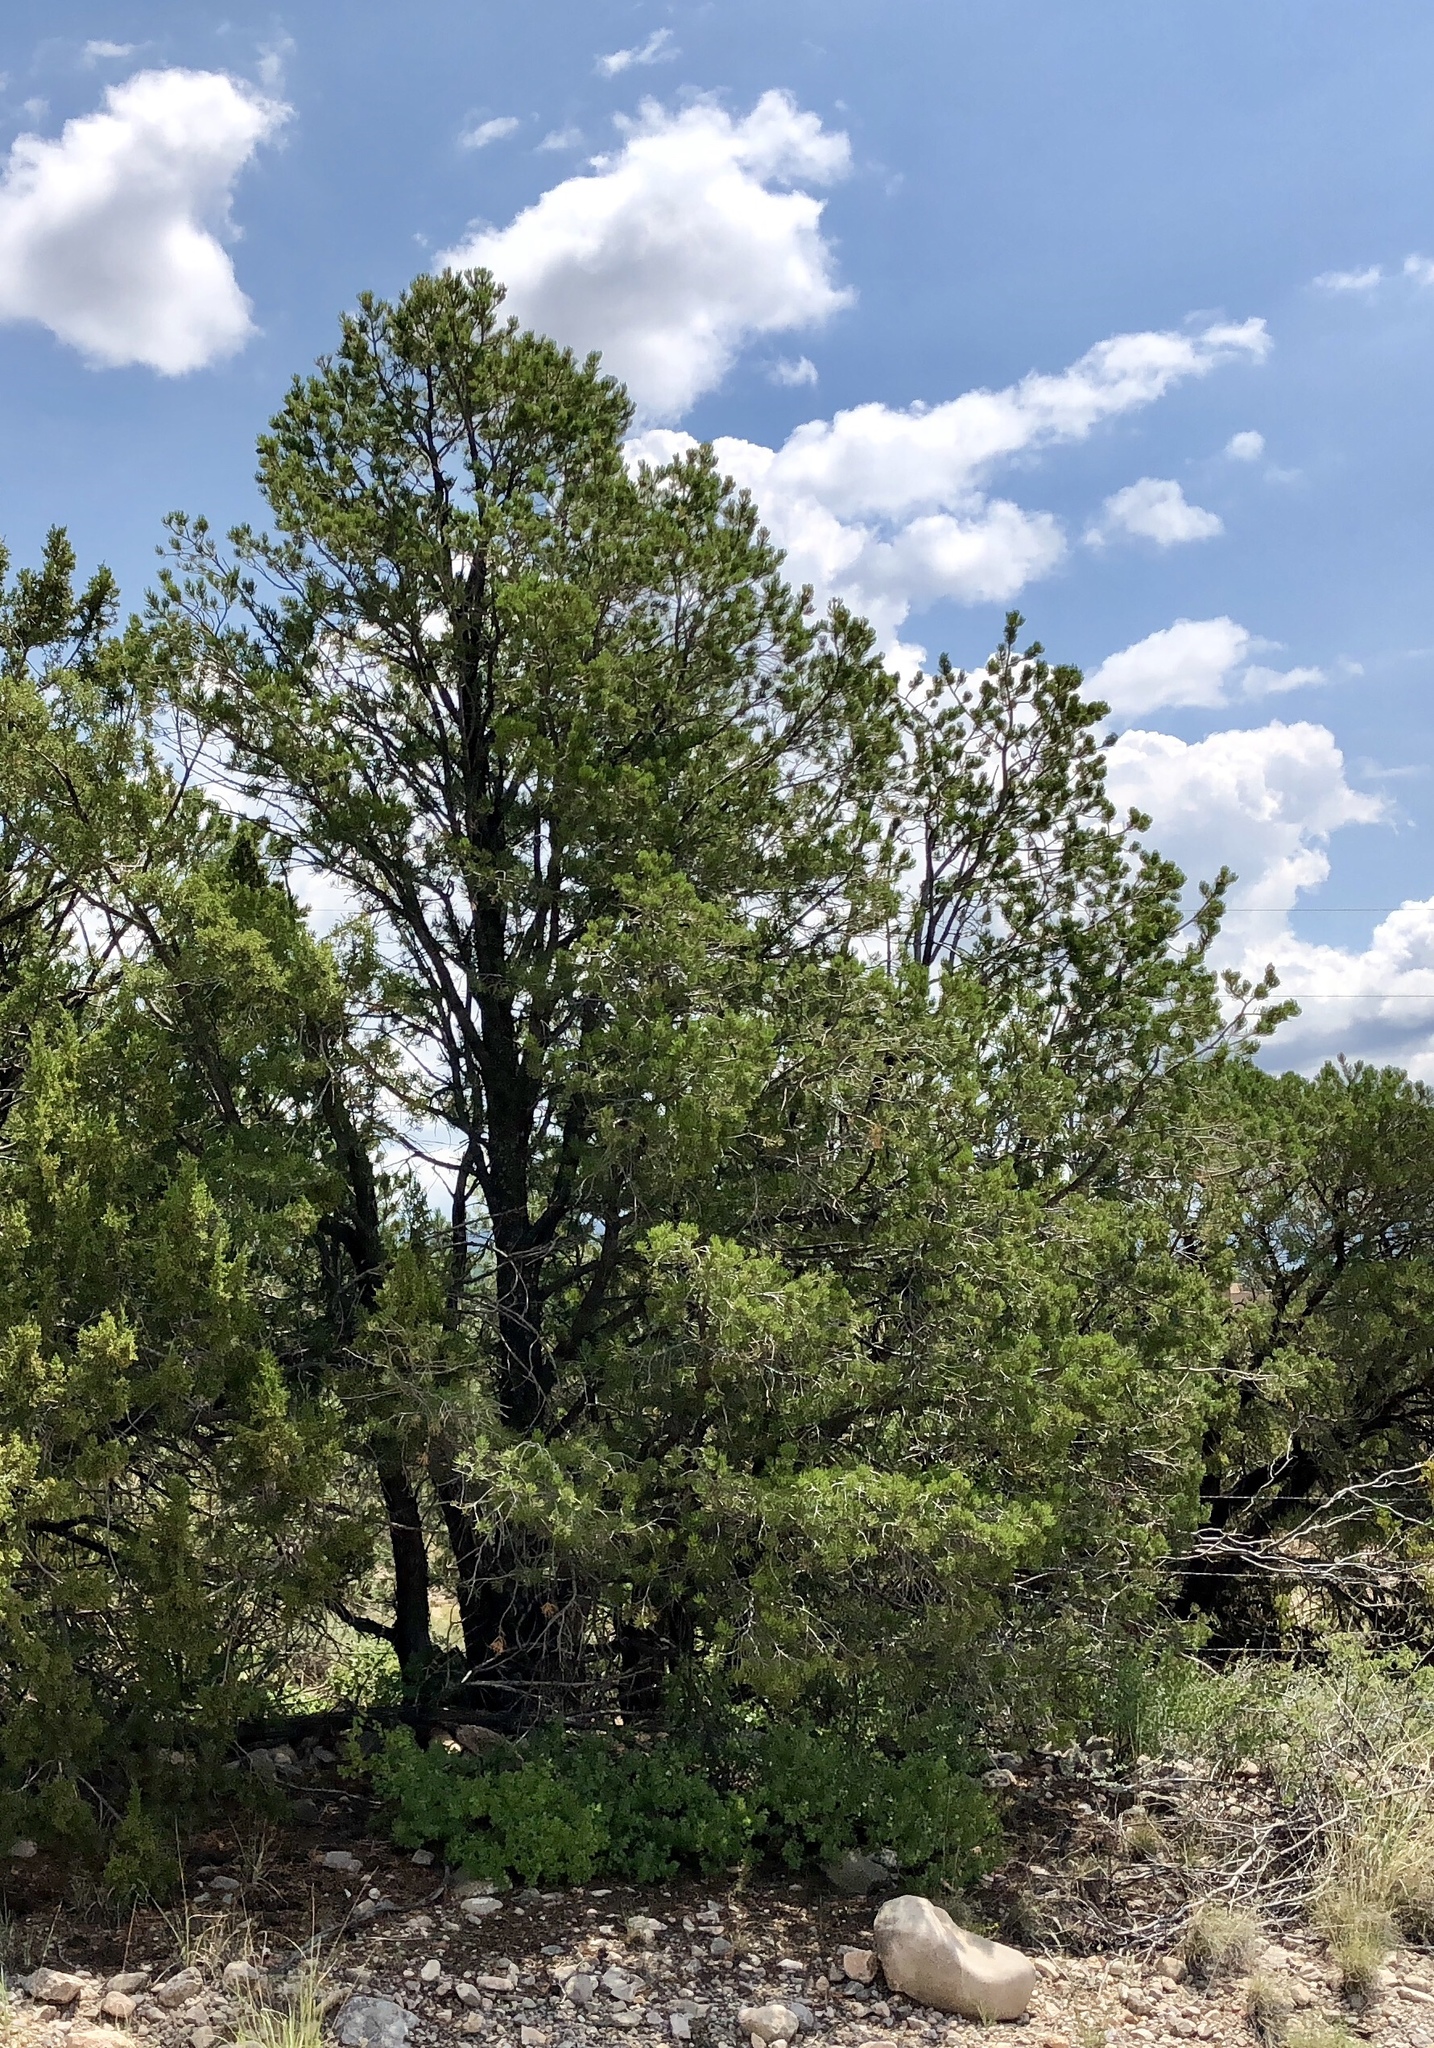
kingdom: Plantae
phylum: Tracheophyta
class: Pinopsida
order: Pinales
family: Pinaceae
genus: Pinus
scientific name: Pinus edulis
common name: Colorado pinyon
